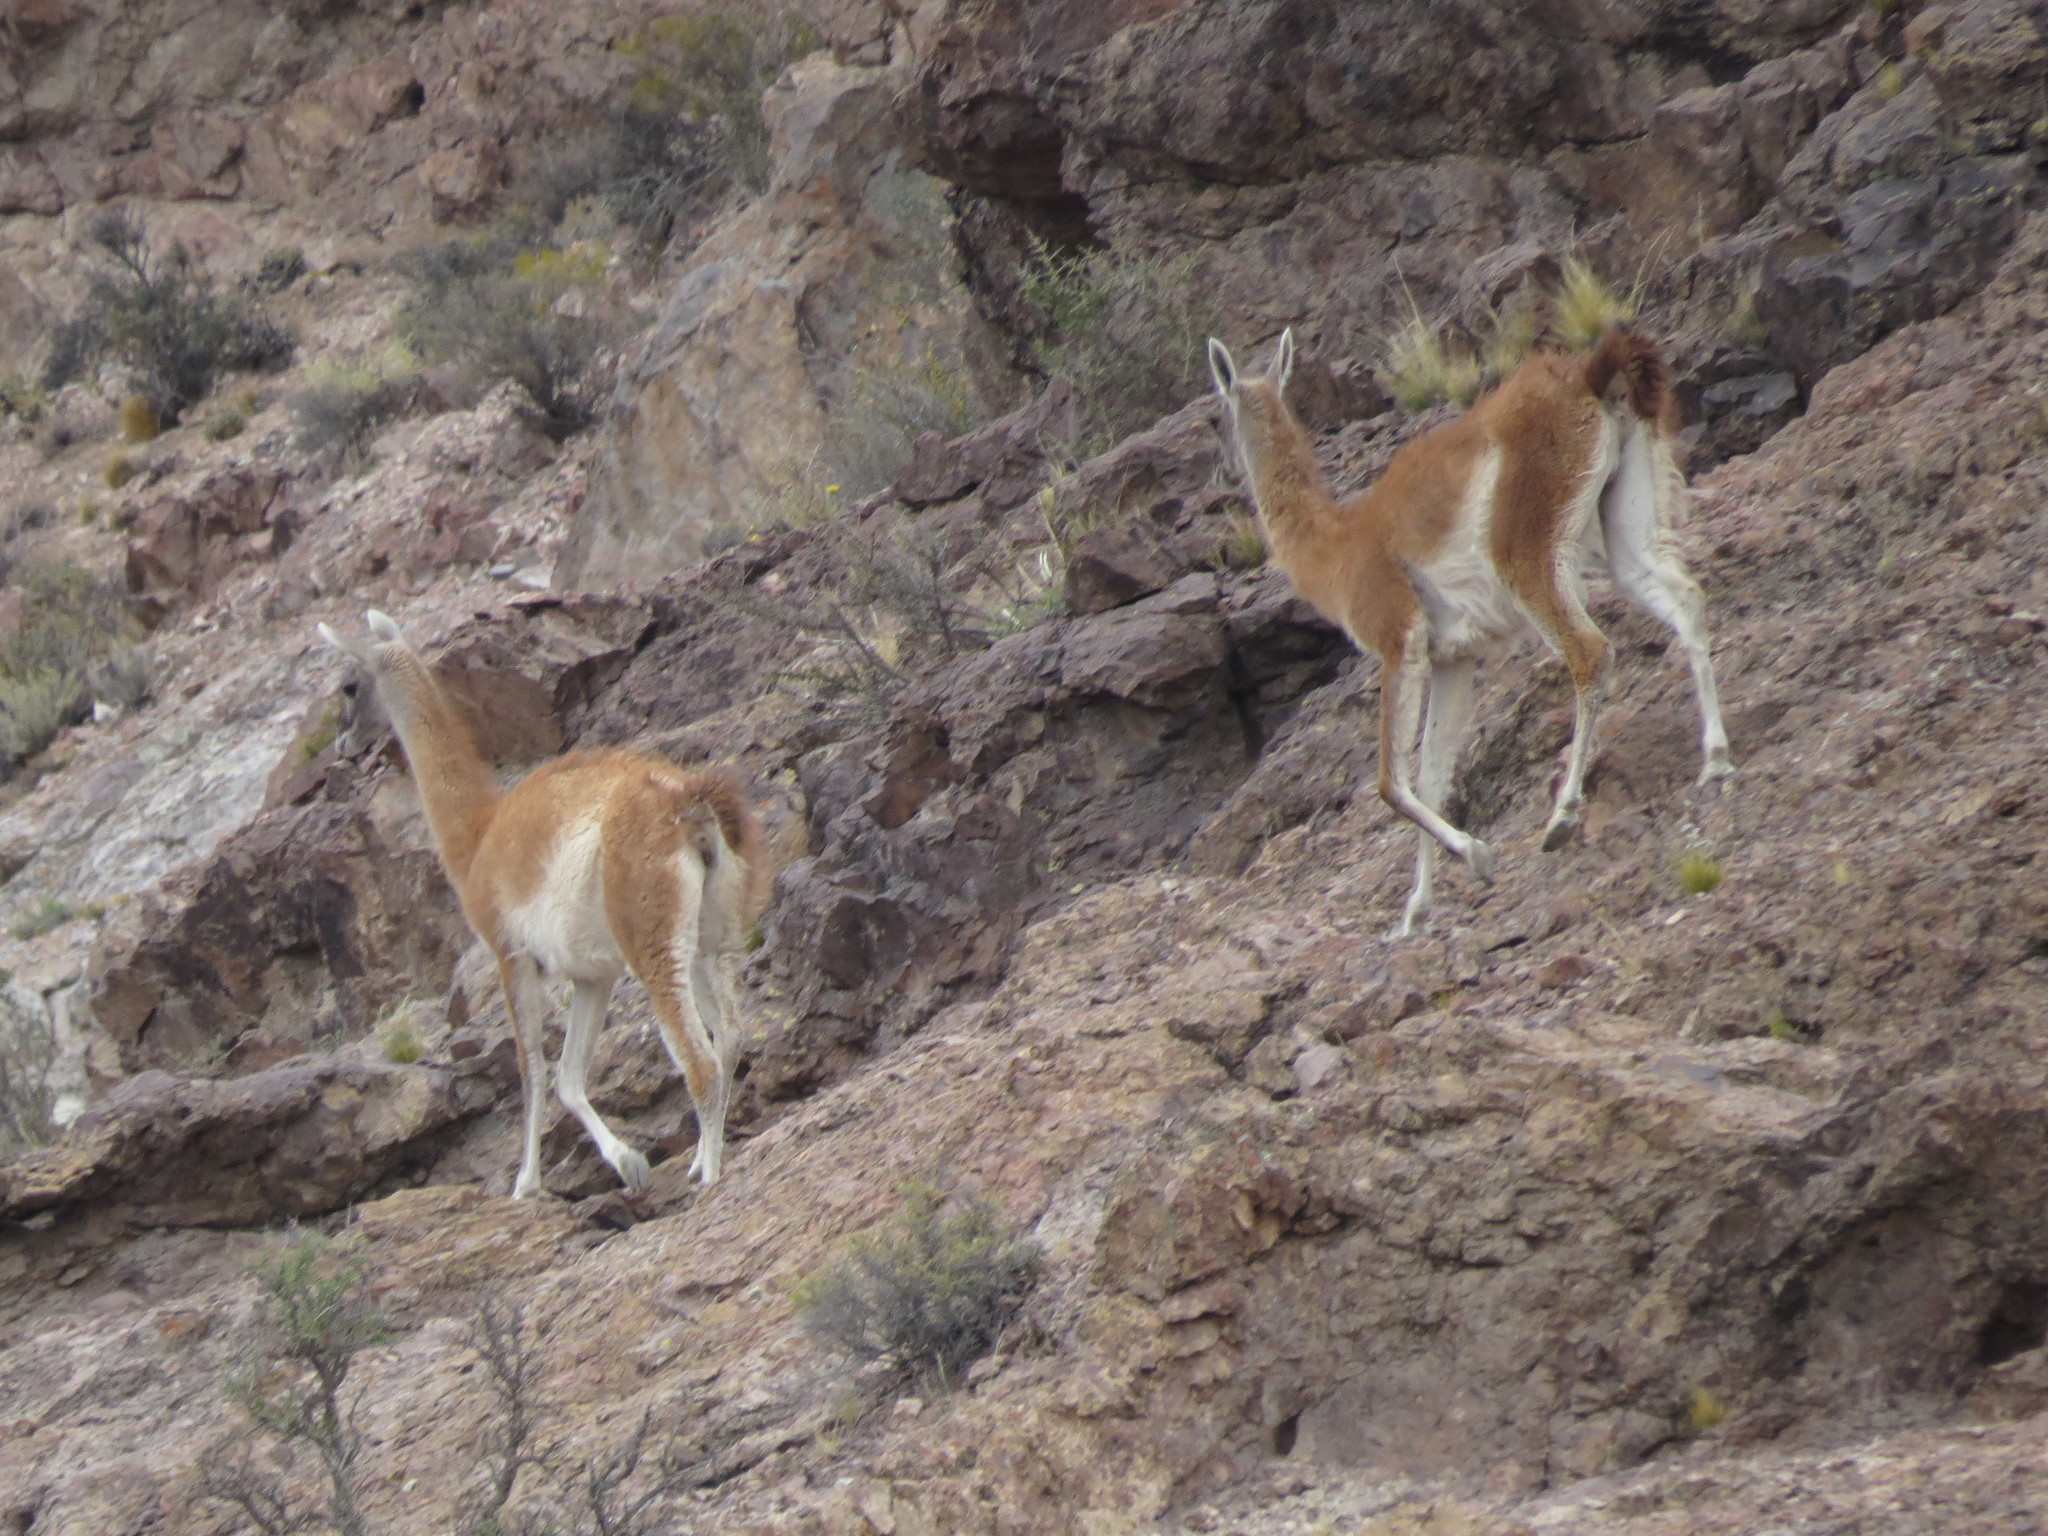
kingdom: Animalia
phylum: Chordata
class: Mammalia
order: Artiodactyla
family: Camelidae
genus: Lama
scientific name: Lama glama
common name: Llama
